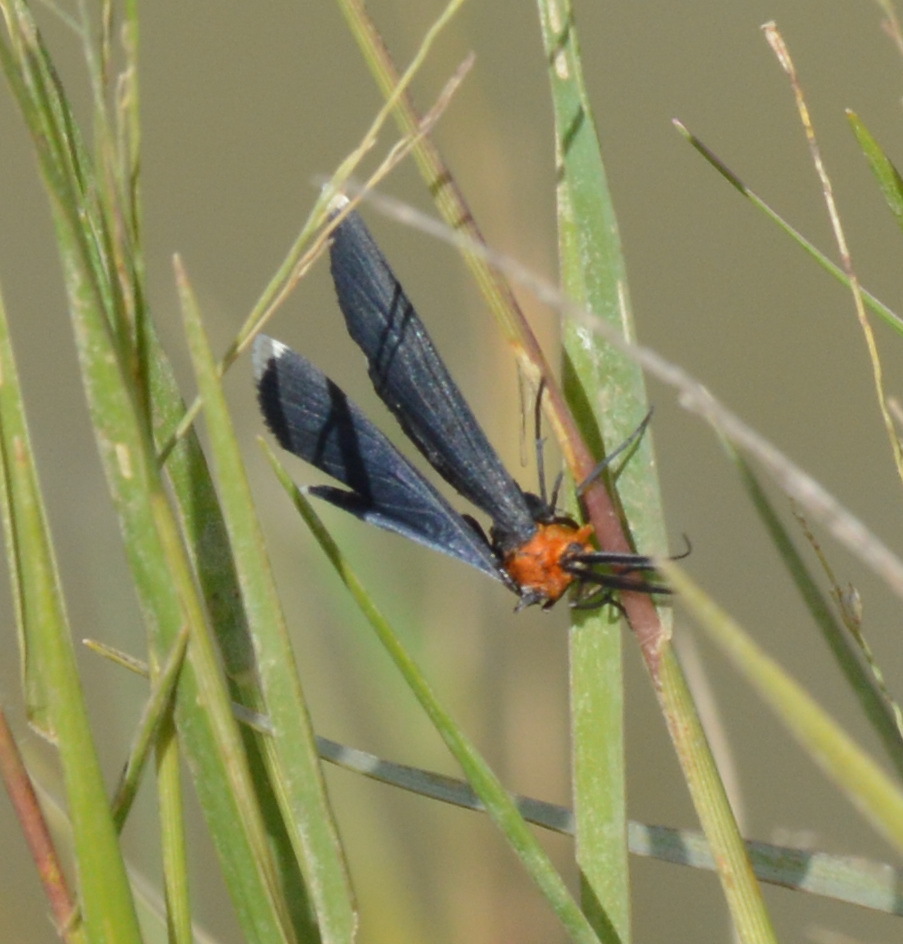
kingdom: Animalia
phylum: Arthropoda
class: Insecta
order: Lepidoptera
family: Geometridae
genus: Melanchroia
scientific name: Melanchroia chephise
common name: White-tipped black
